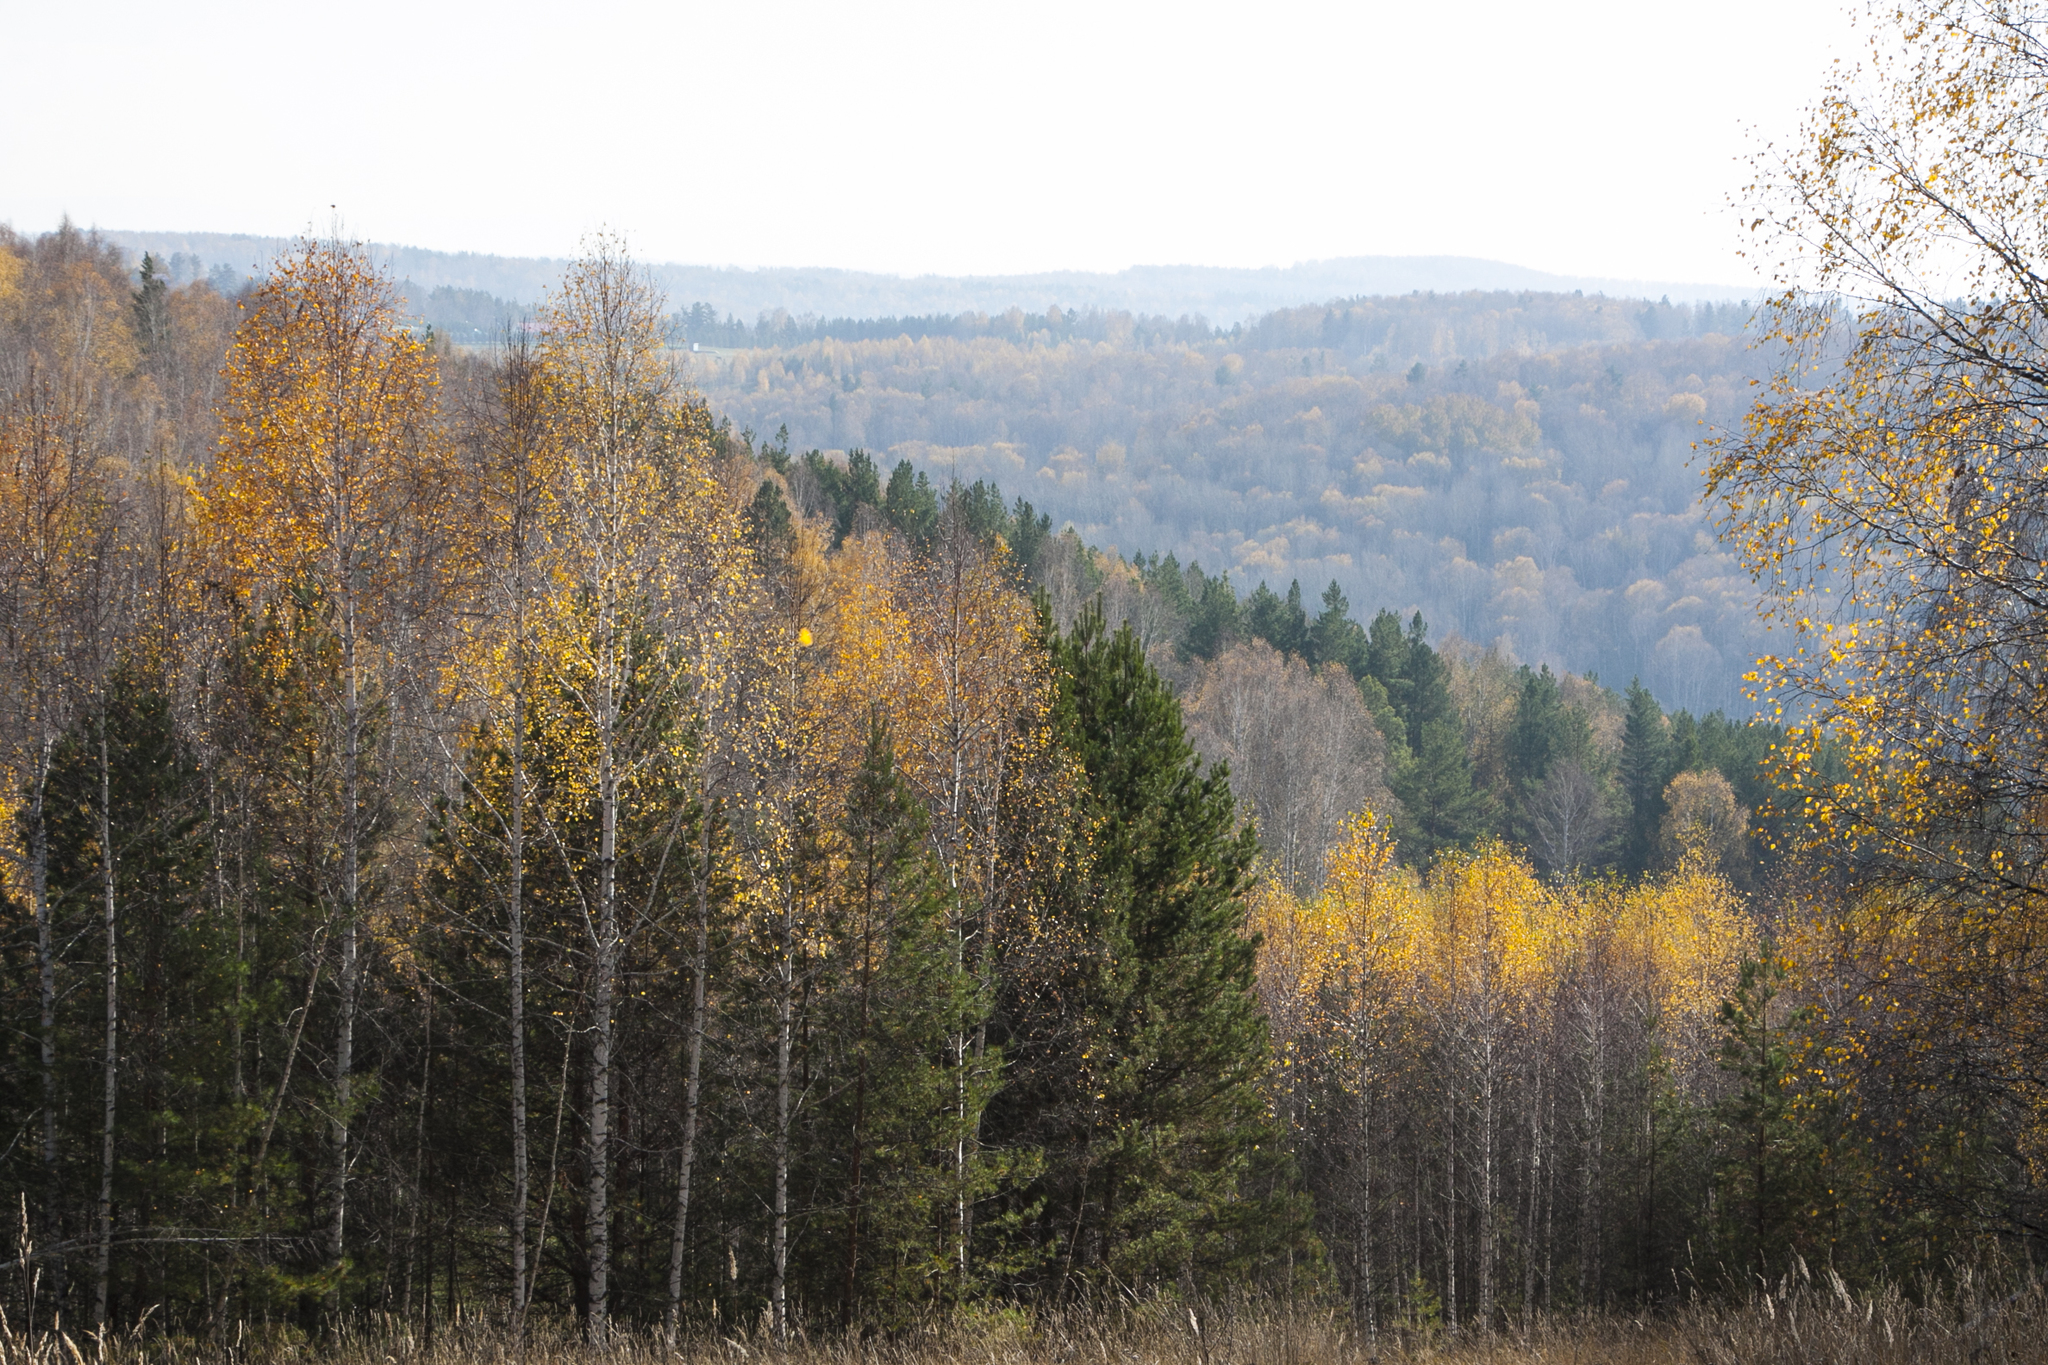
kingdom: Plantae
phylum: Tracheophyta
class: Magnoliopsida
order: Fagales
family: Betulaceae
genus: Betula
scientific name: Betula pendula
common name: Silver birch
